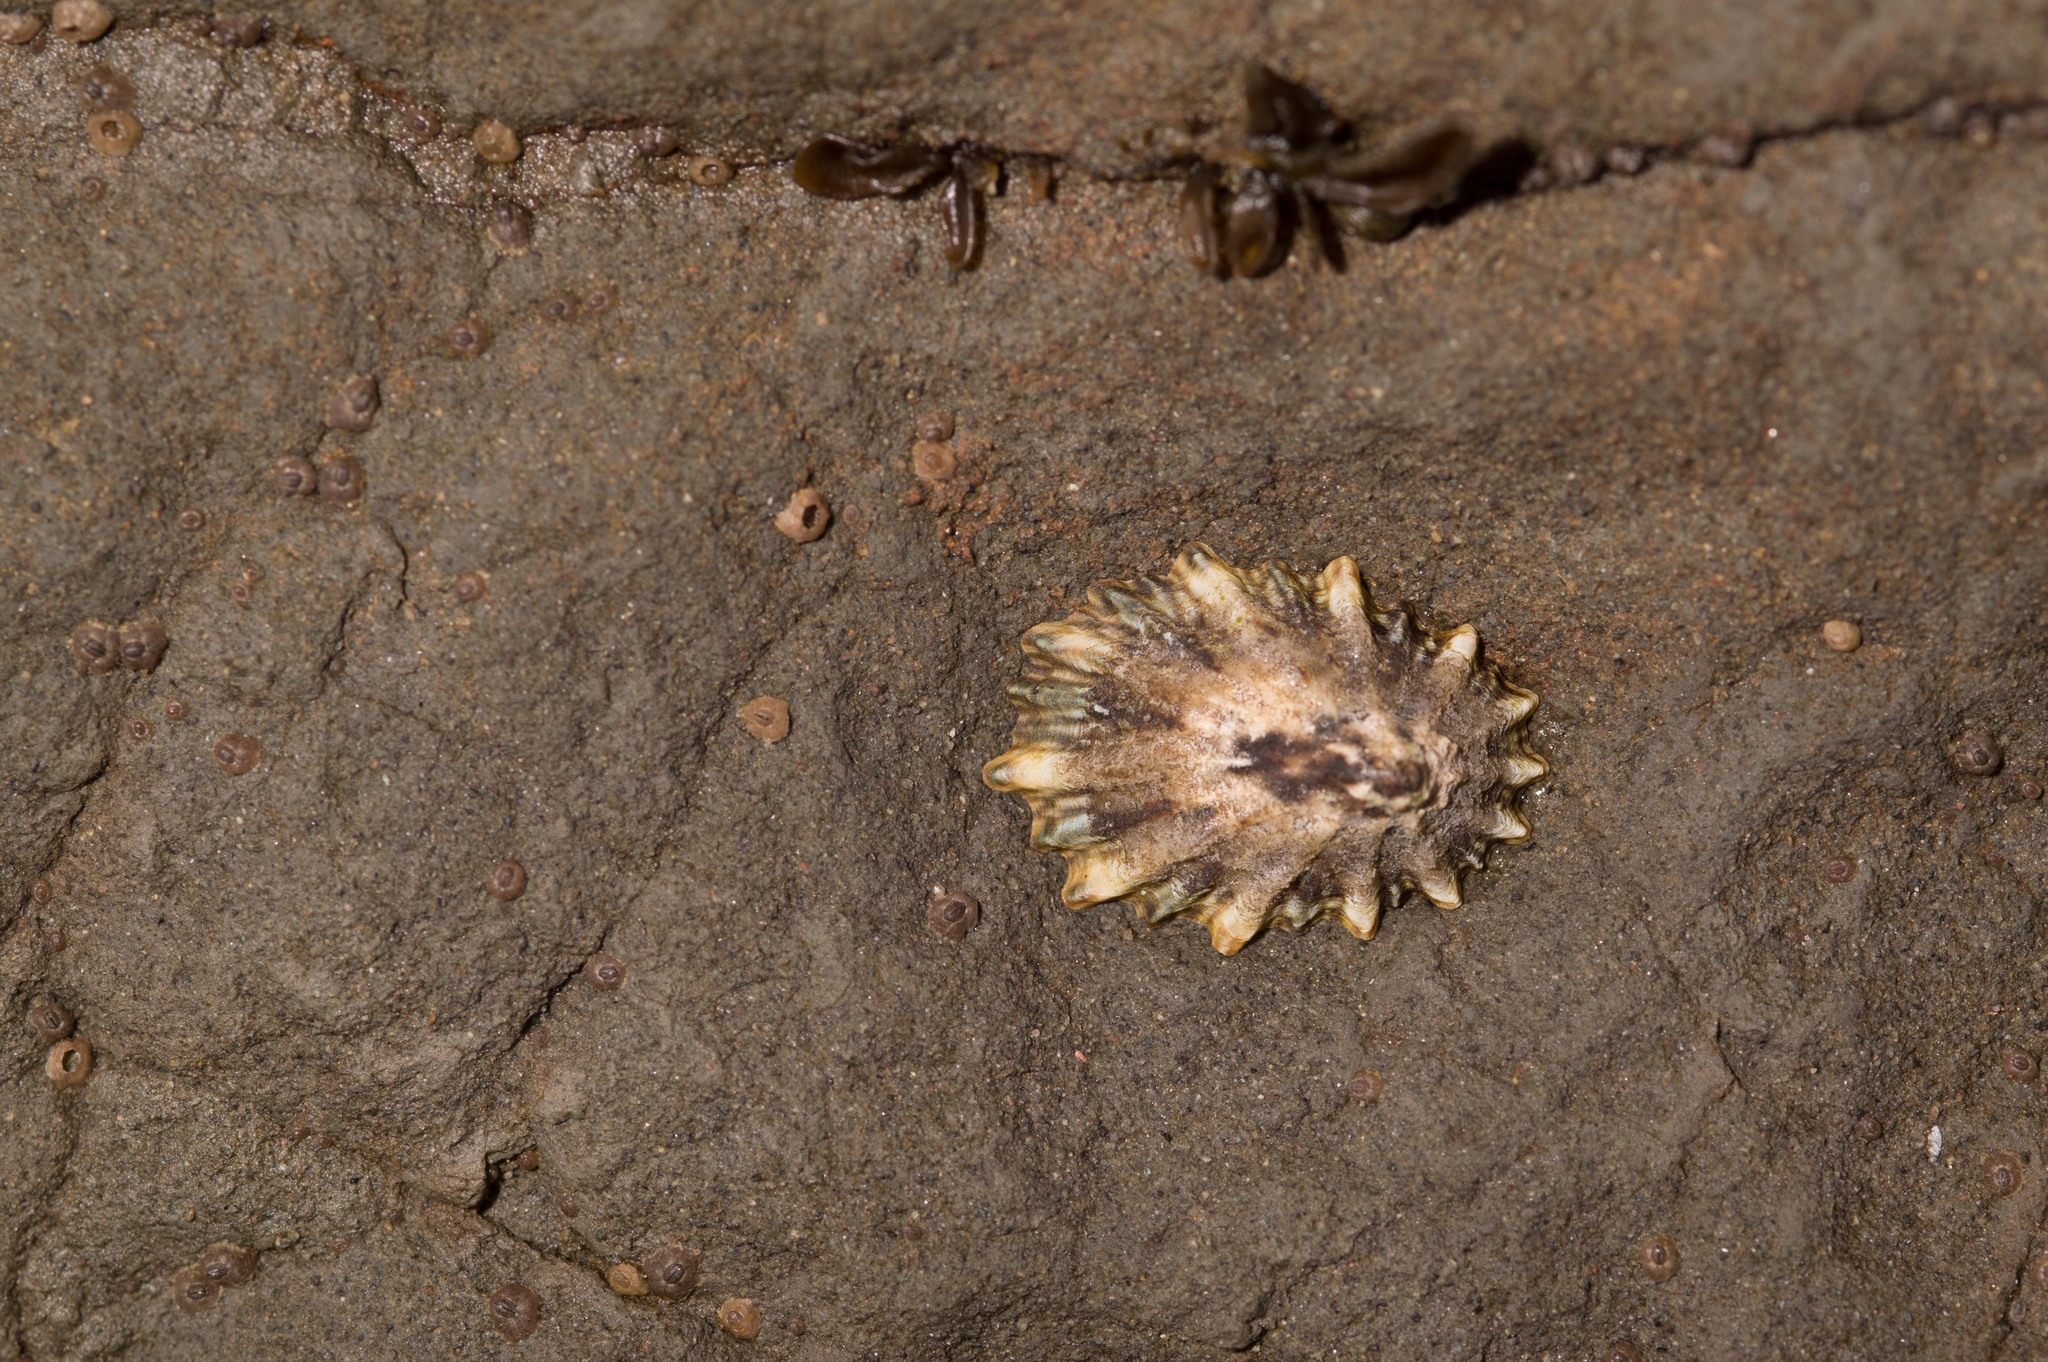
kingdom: Animalia
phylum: Mollusca
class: Gastropoda
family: Lottiidae
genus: Lottia
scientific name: Lottia scabra
